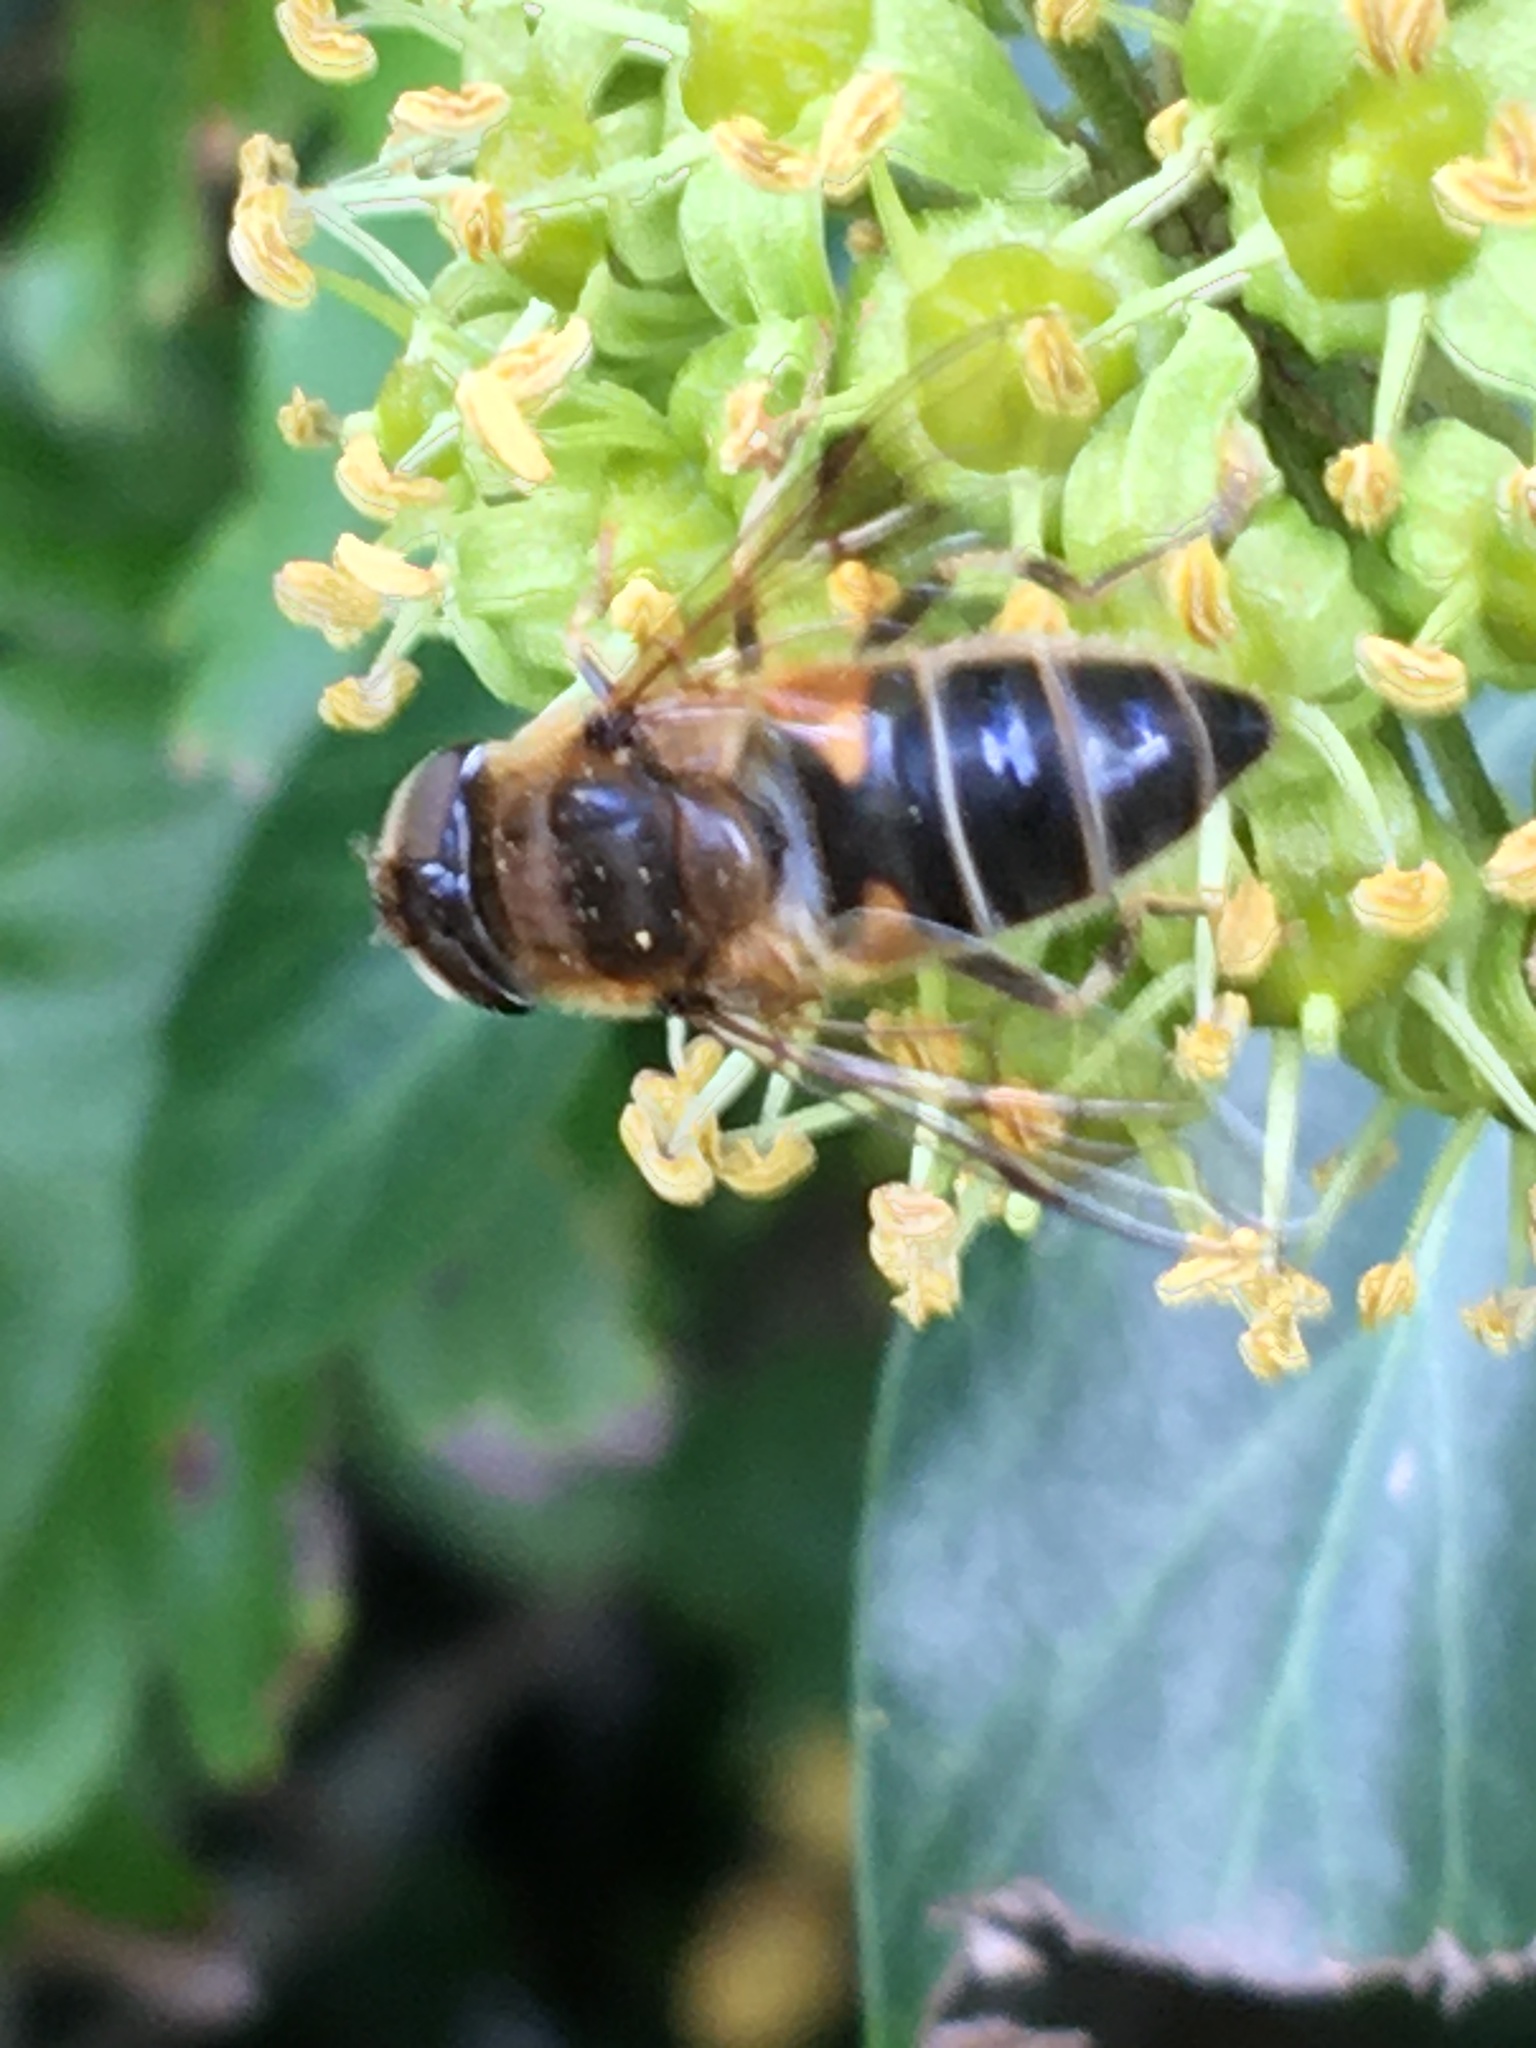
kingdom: Animalia
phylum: Arthropoda
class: Insecta
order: Diptera
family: Syrphidae
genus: Eristalis
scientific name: Eristalis pertinax
